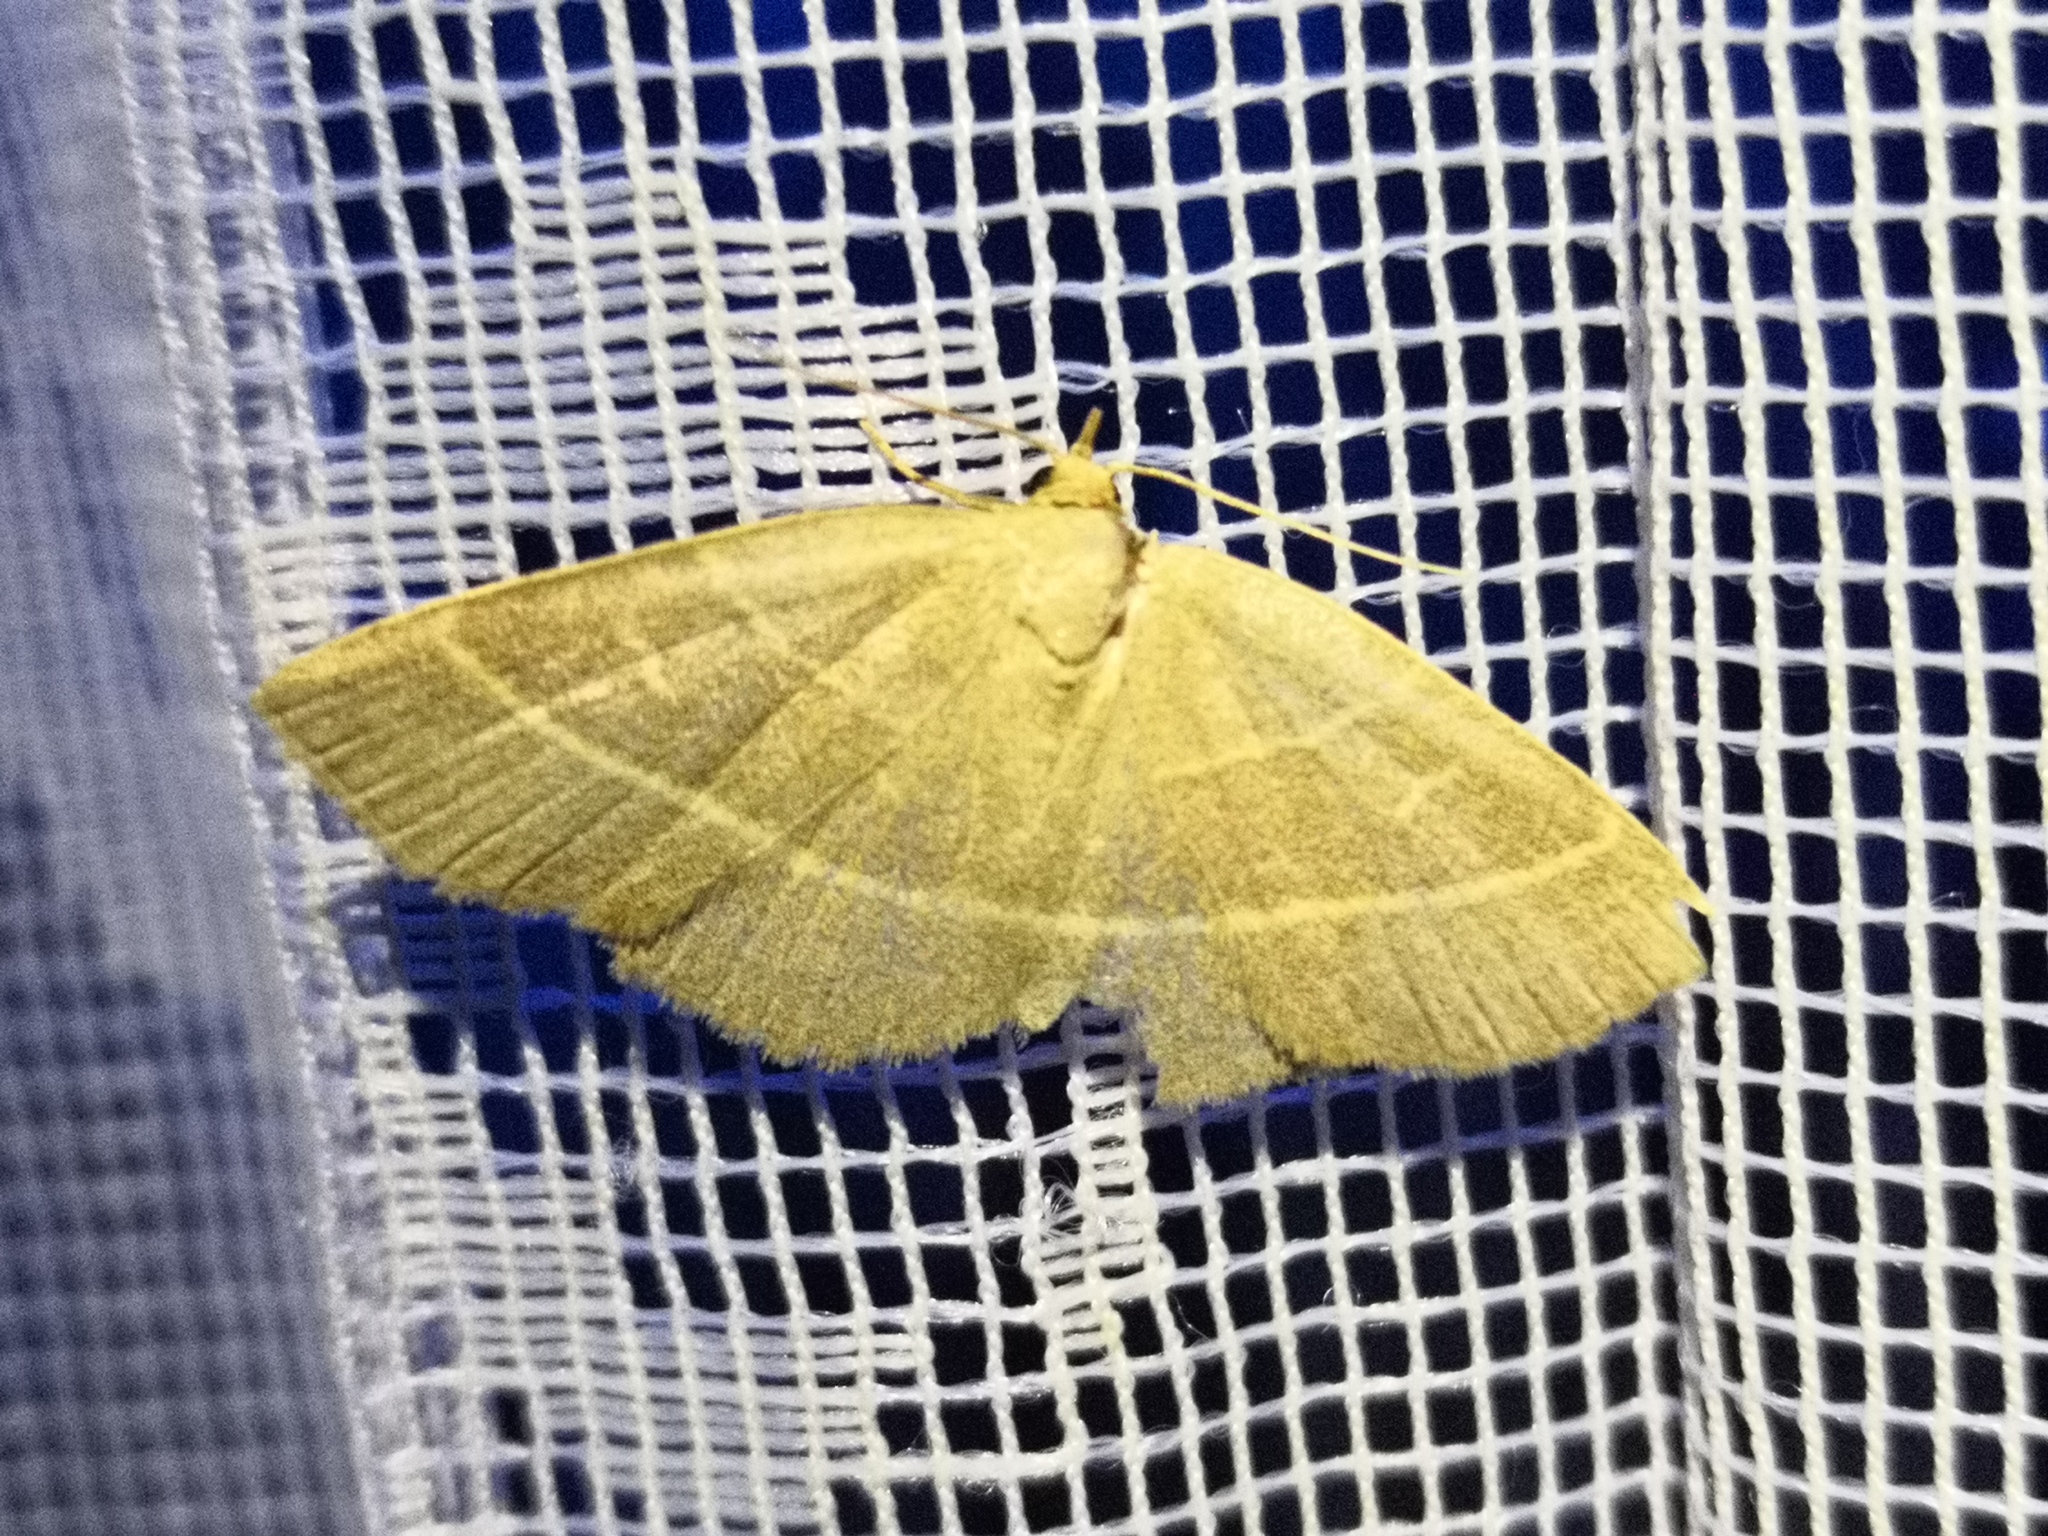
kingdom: Animalia
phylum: Arthropoda
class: Insecta
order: Lepidoptera
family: Erebidae
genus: Trisateles
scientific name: Trisateles emortualis
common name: Olive crescent
